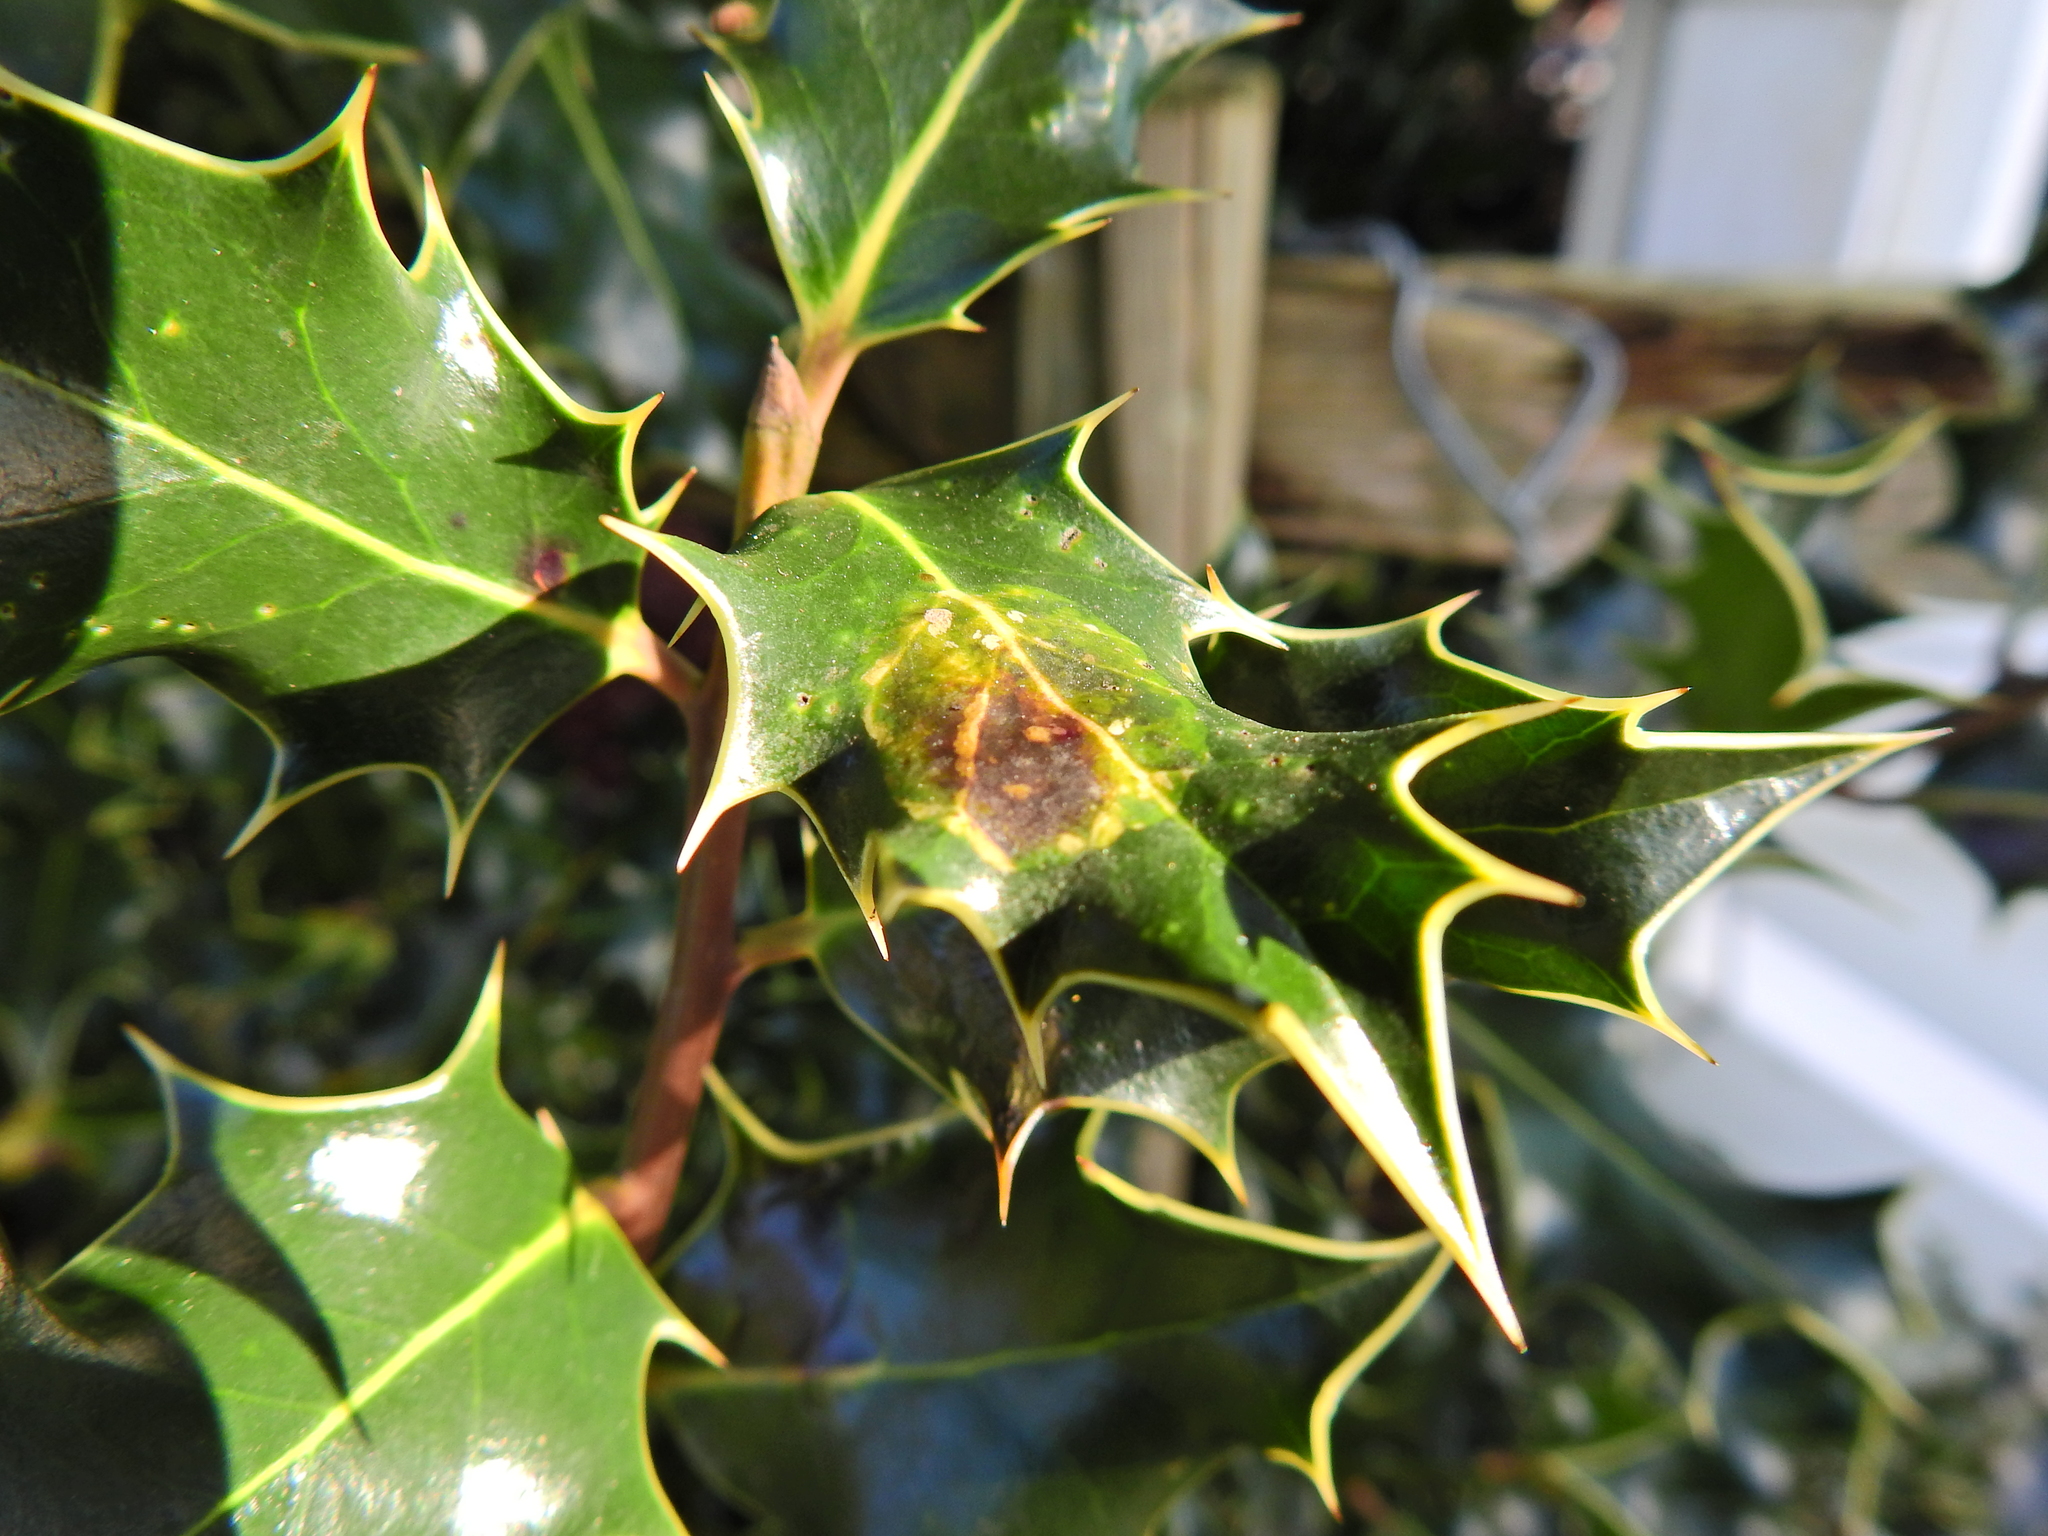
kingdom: Animalia
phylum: Arthropoda
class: Insecta
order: Diptera
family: Agromyzidae
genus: Phytomyza
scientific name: Phytomyza ilicis
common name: Holly leafminer
